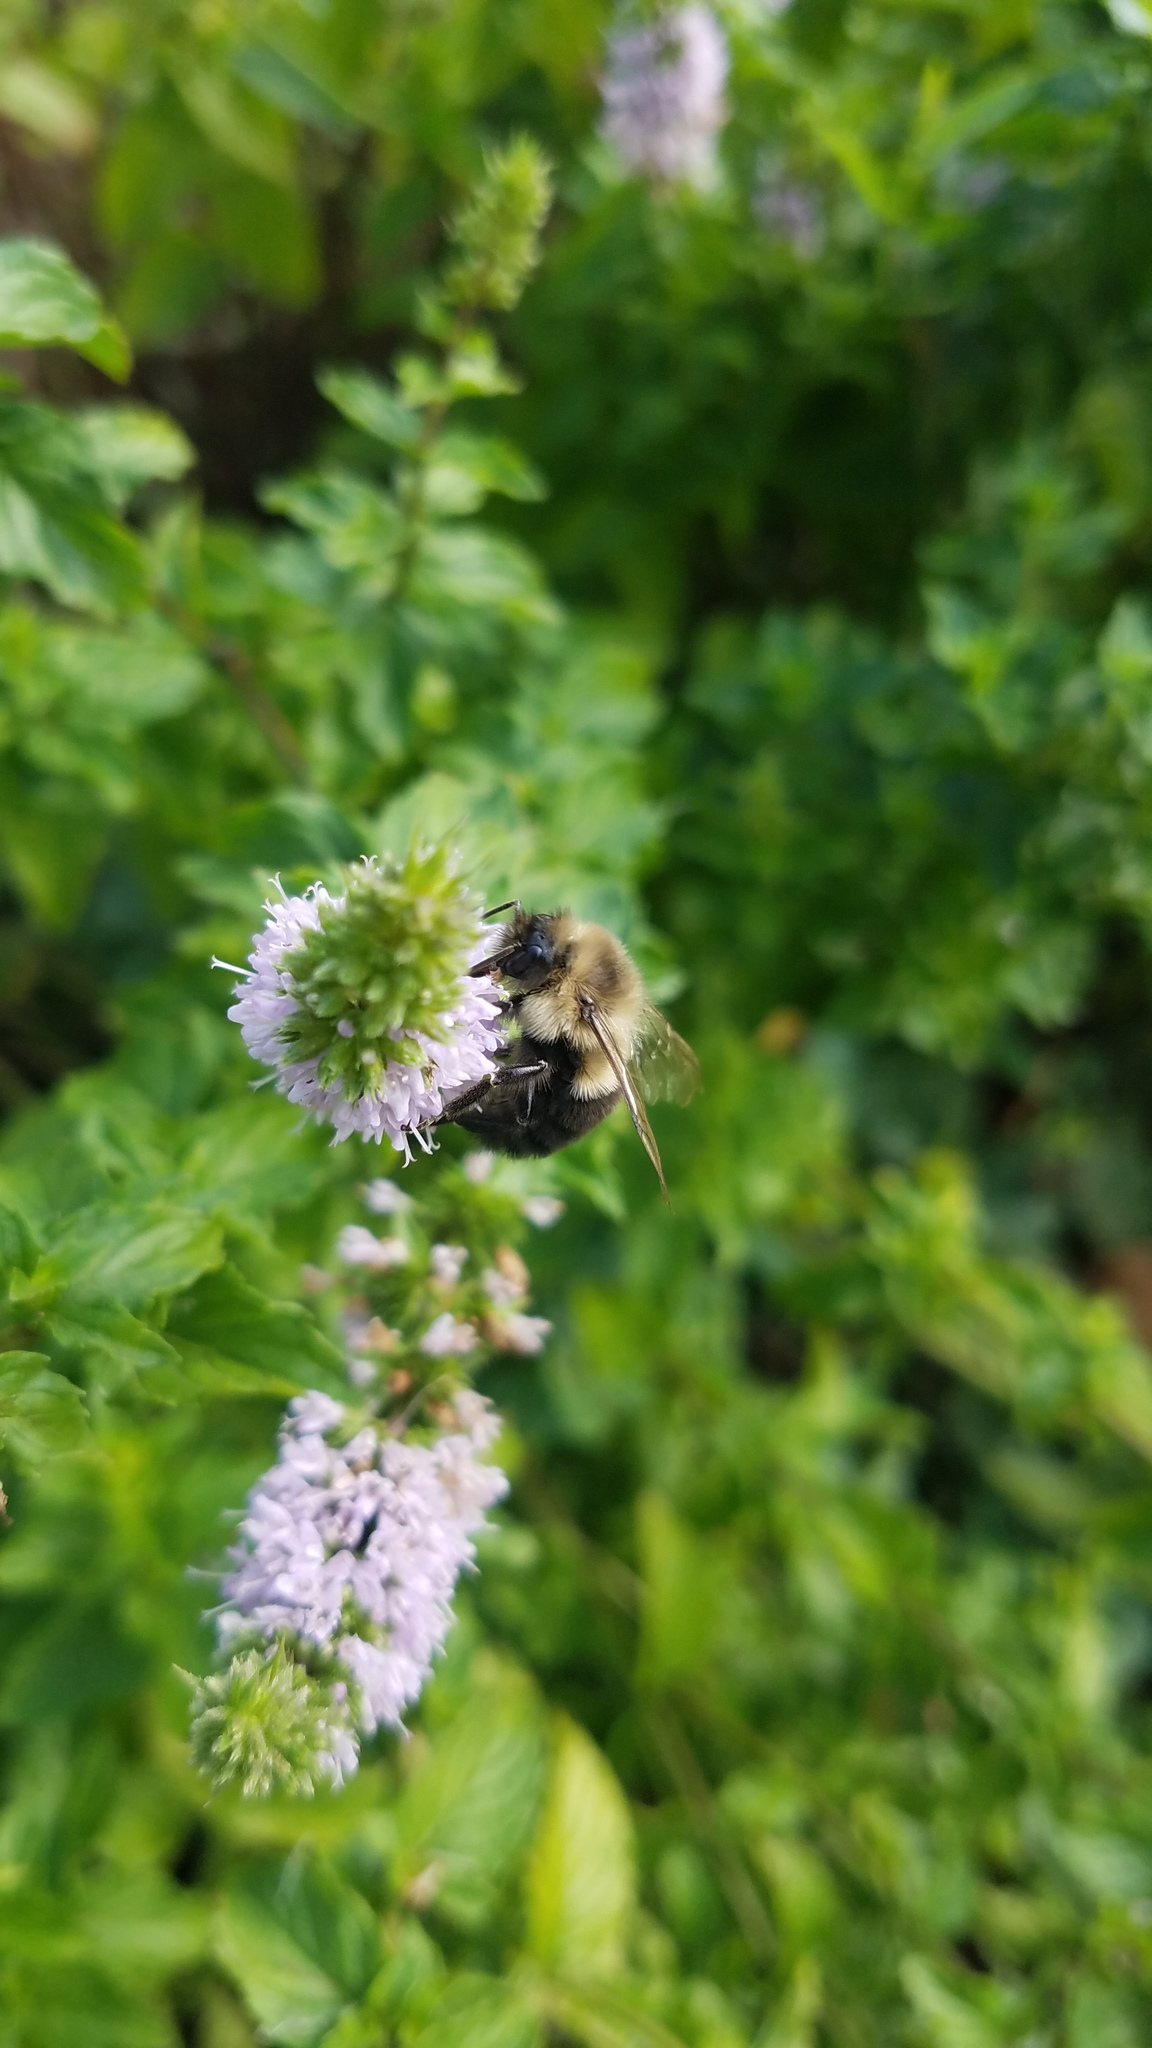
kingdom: Animalia
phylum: Arthropoda
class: Insecta
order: Hymenoptera
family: Apidae
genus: Bombus
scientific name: Bombus impatiens
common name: Common eastern bumble bee
